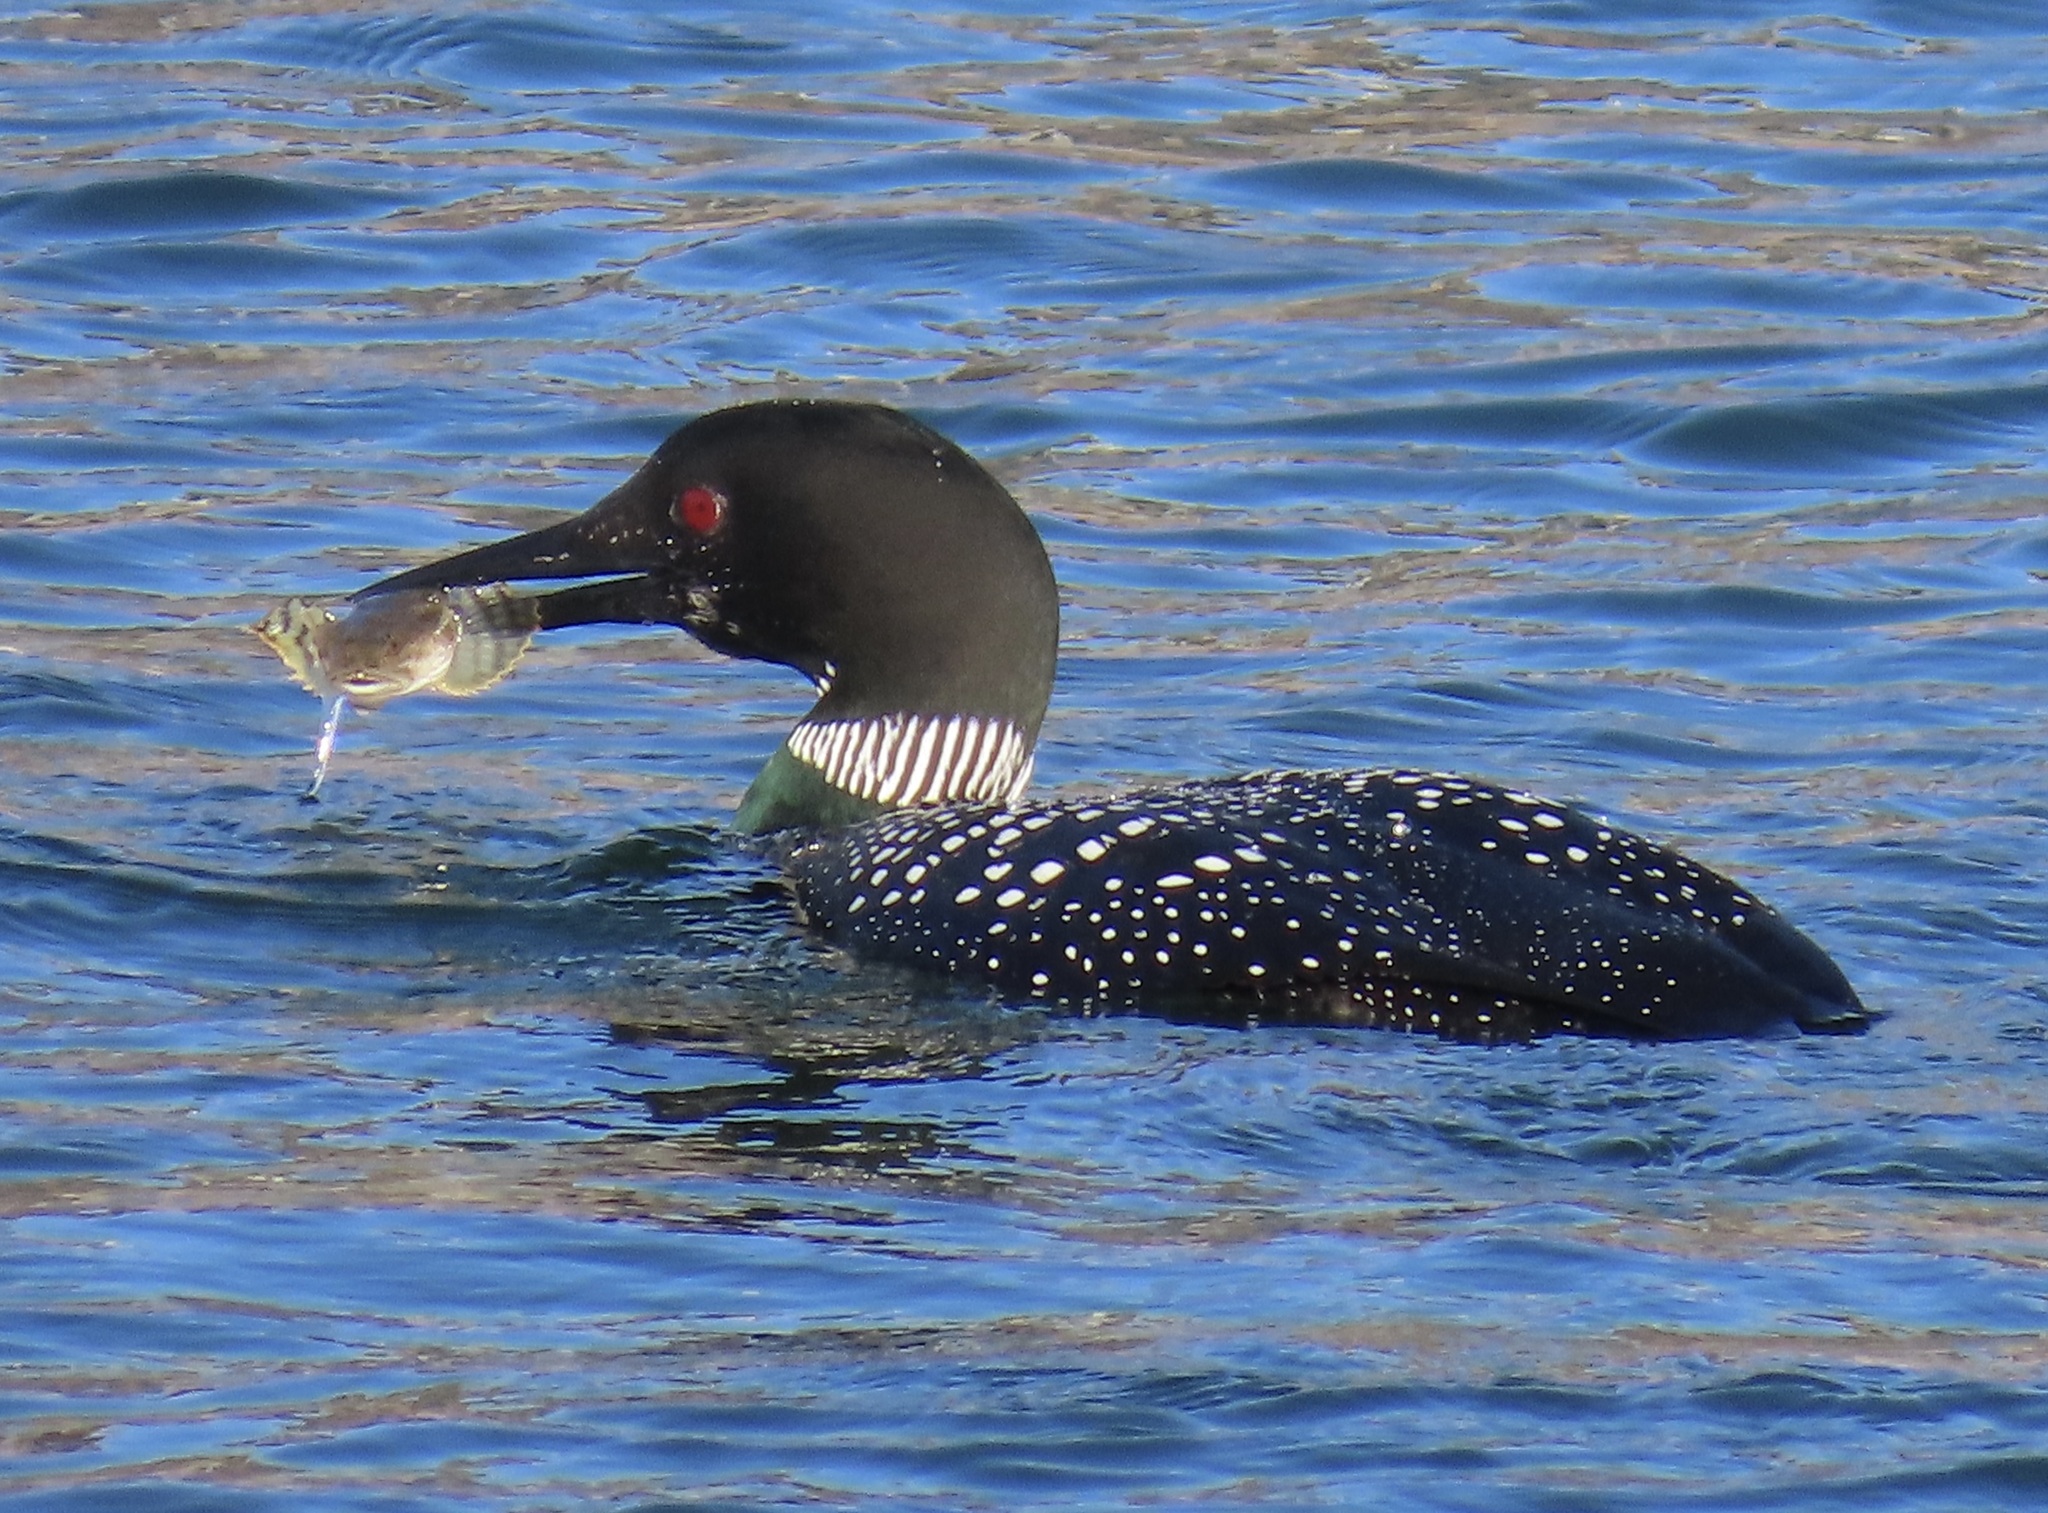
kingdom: Animalia
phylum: Chordata
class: Aves
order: Gaviiformes
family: Gaviidae
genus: Gavia
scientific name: Gavia immer
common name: Common loon
